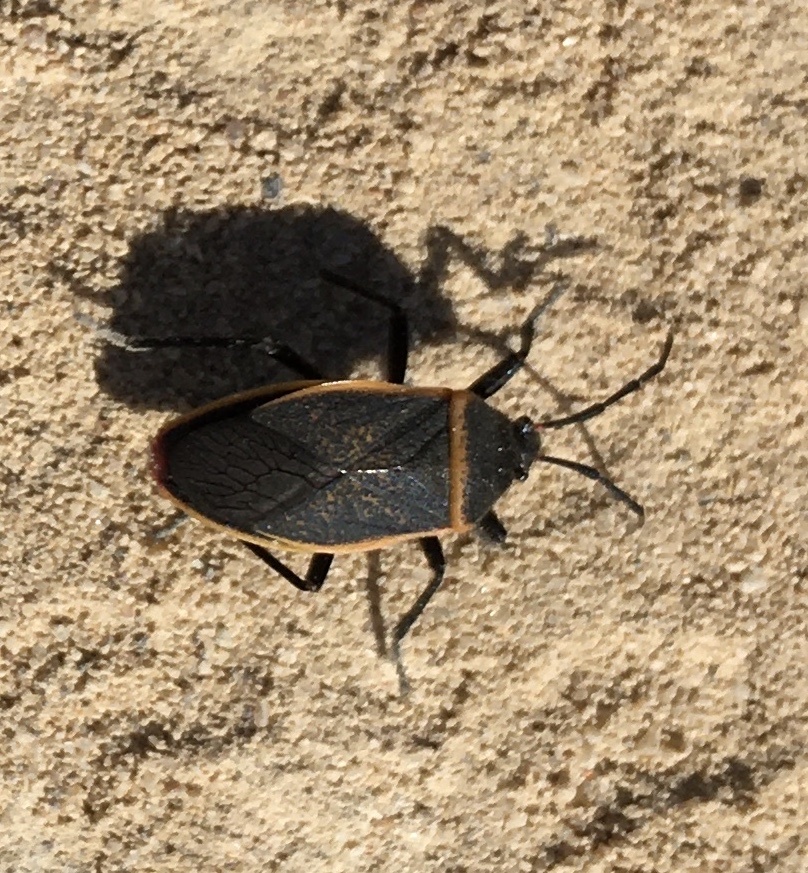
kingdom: Animalia
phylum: Arthropoda
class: Insecta
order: Hemiptera
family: Largidae
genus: Largus
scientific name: Largus californicus
